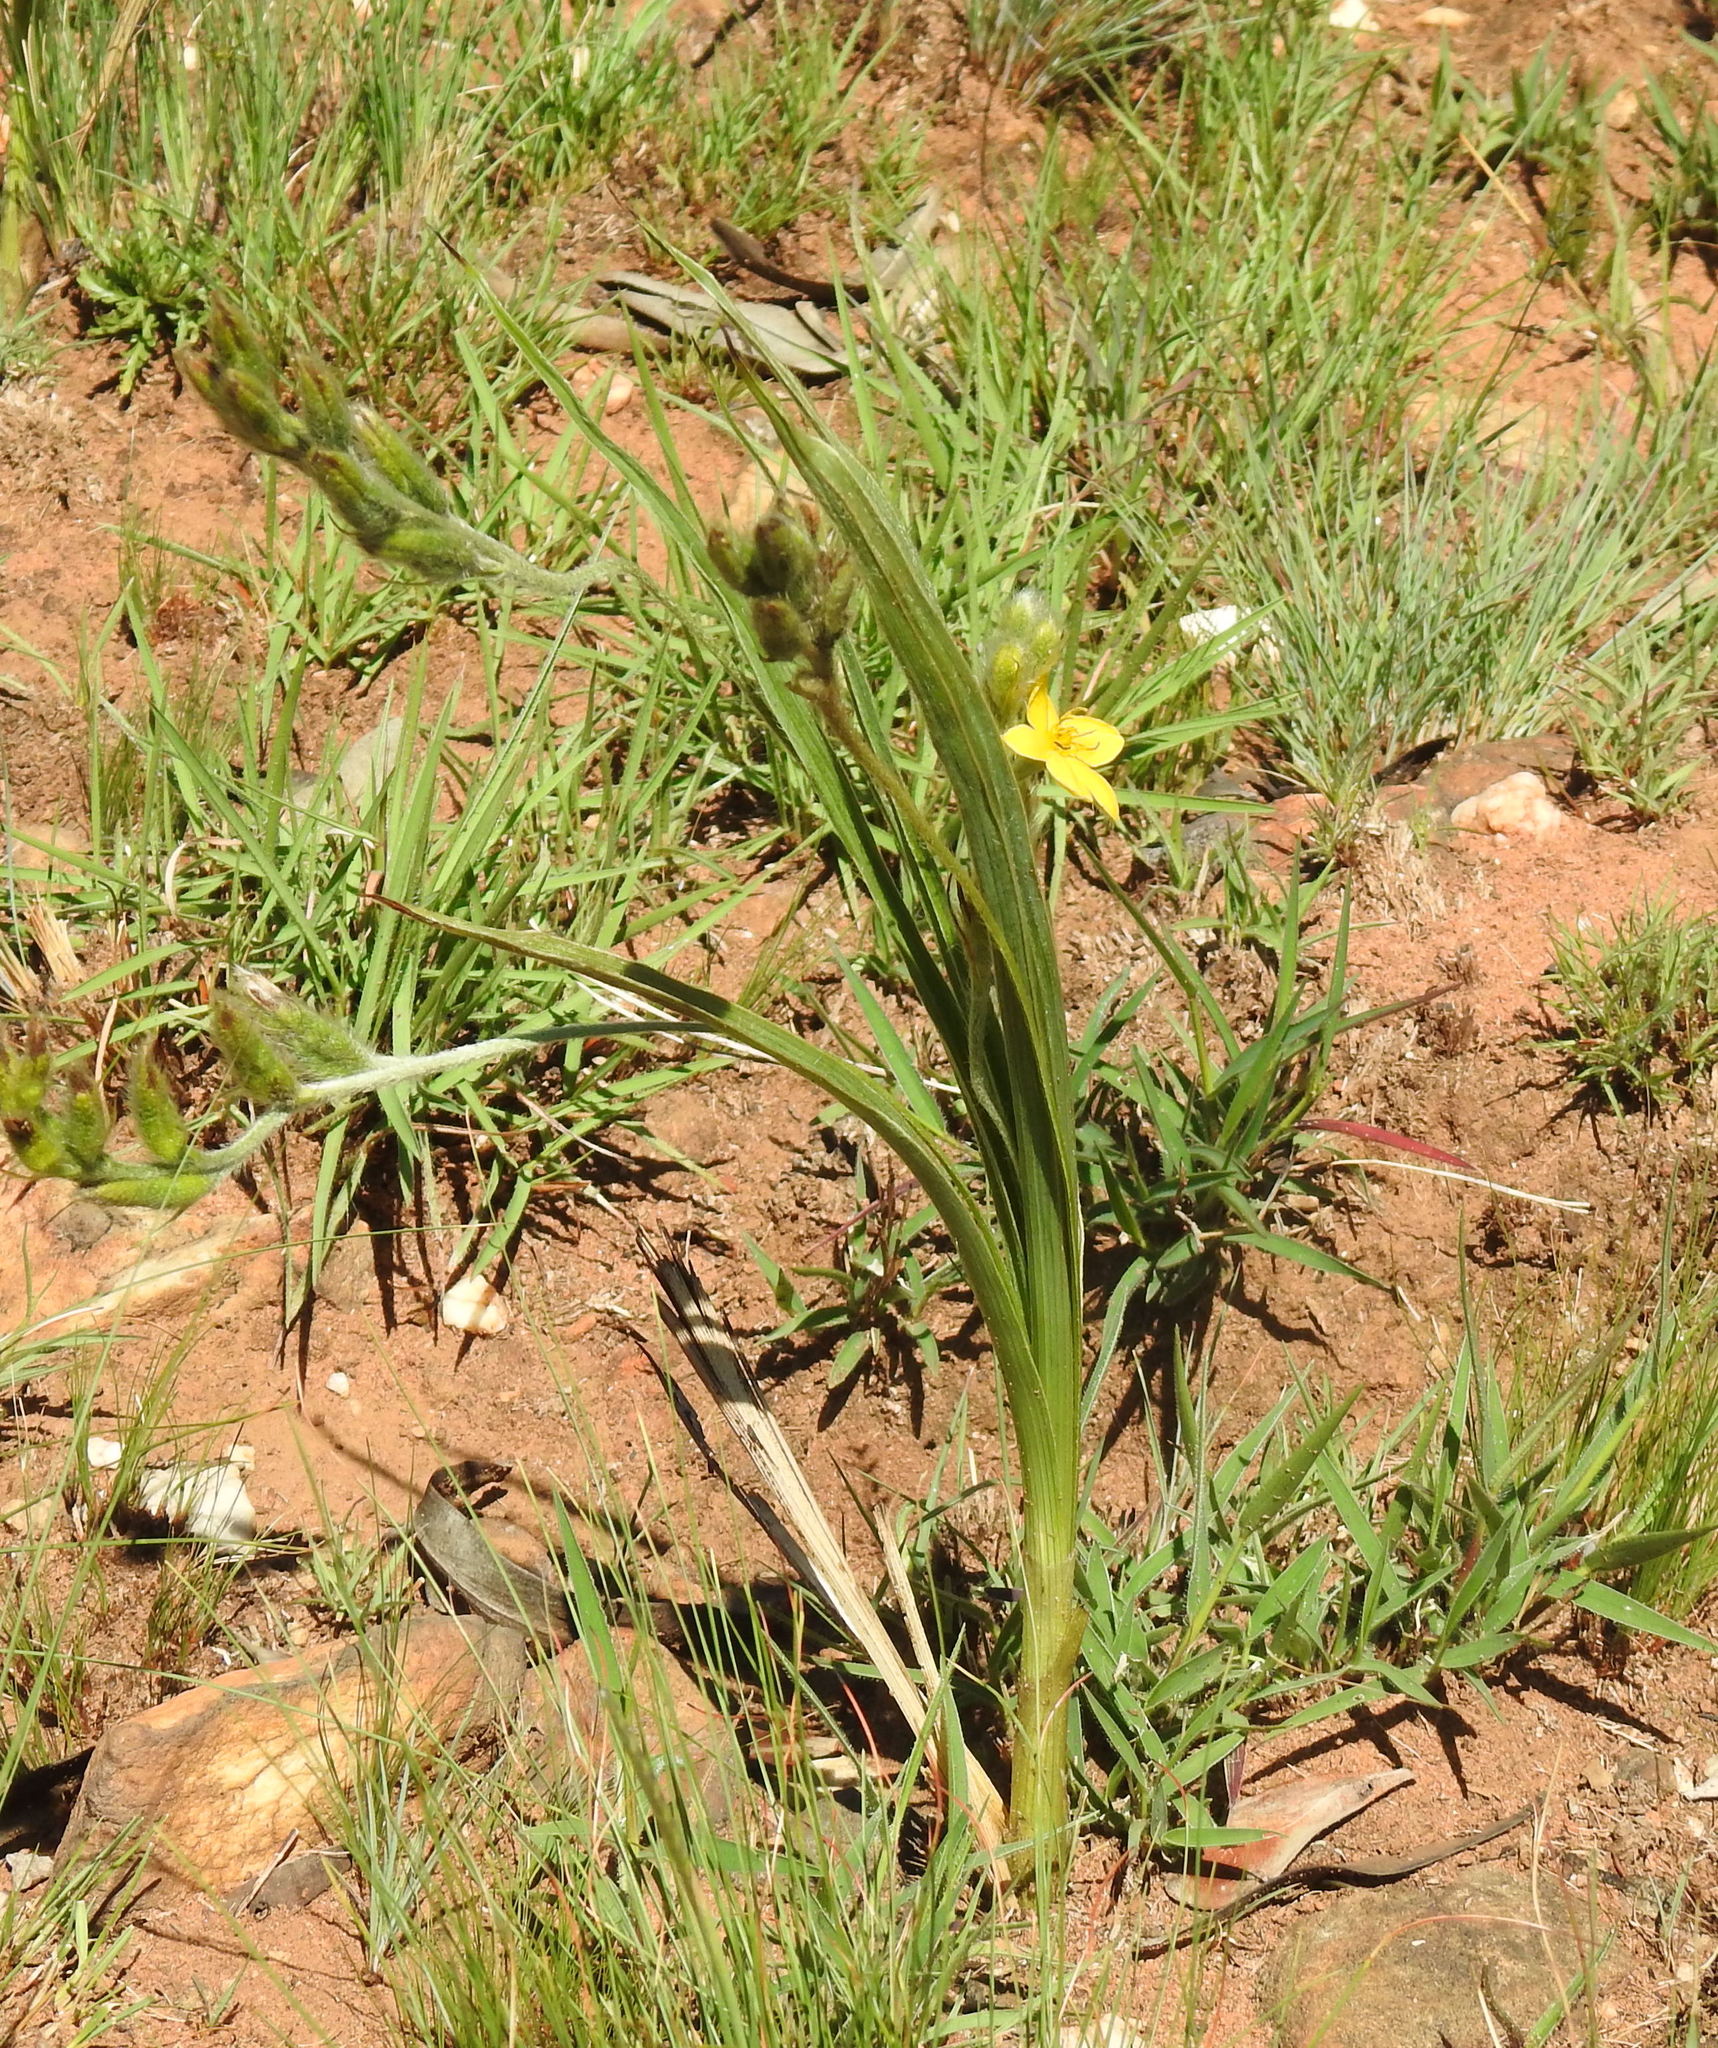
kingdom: Plantae
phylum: Tracheophyta
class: Liliopsida
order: Asparagales
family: Hypoxidaceae
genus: Hypoxis
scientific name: Hypoxis rigidula
